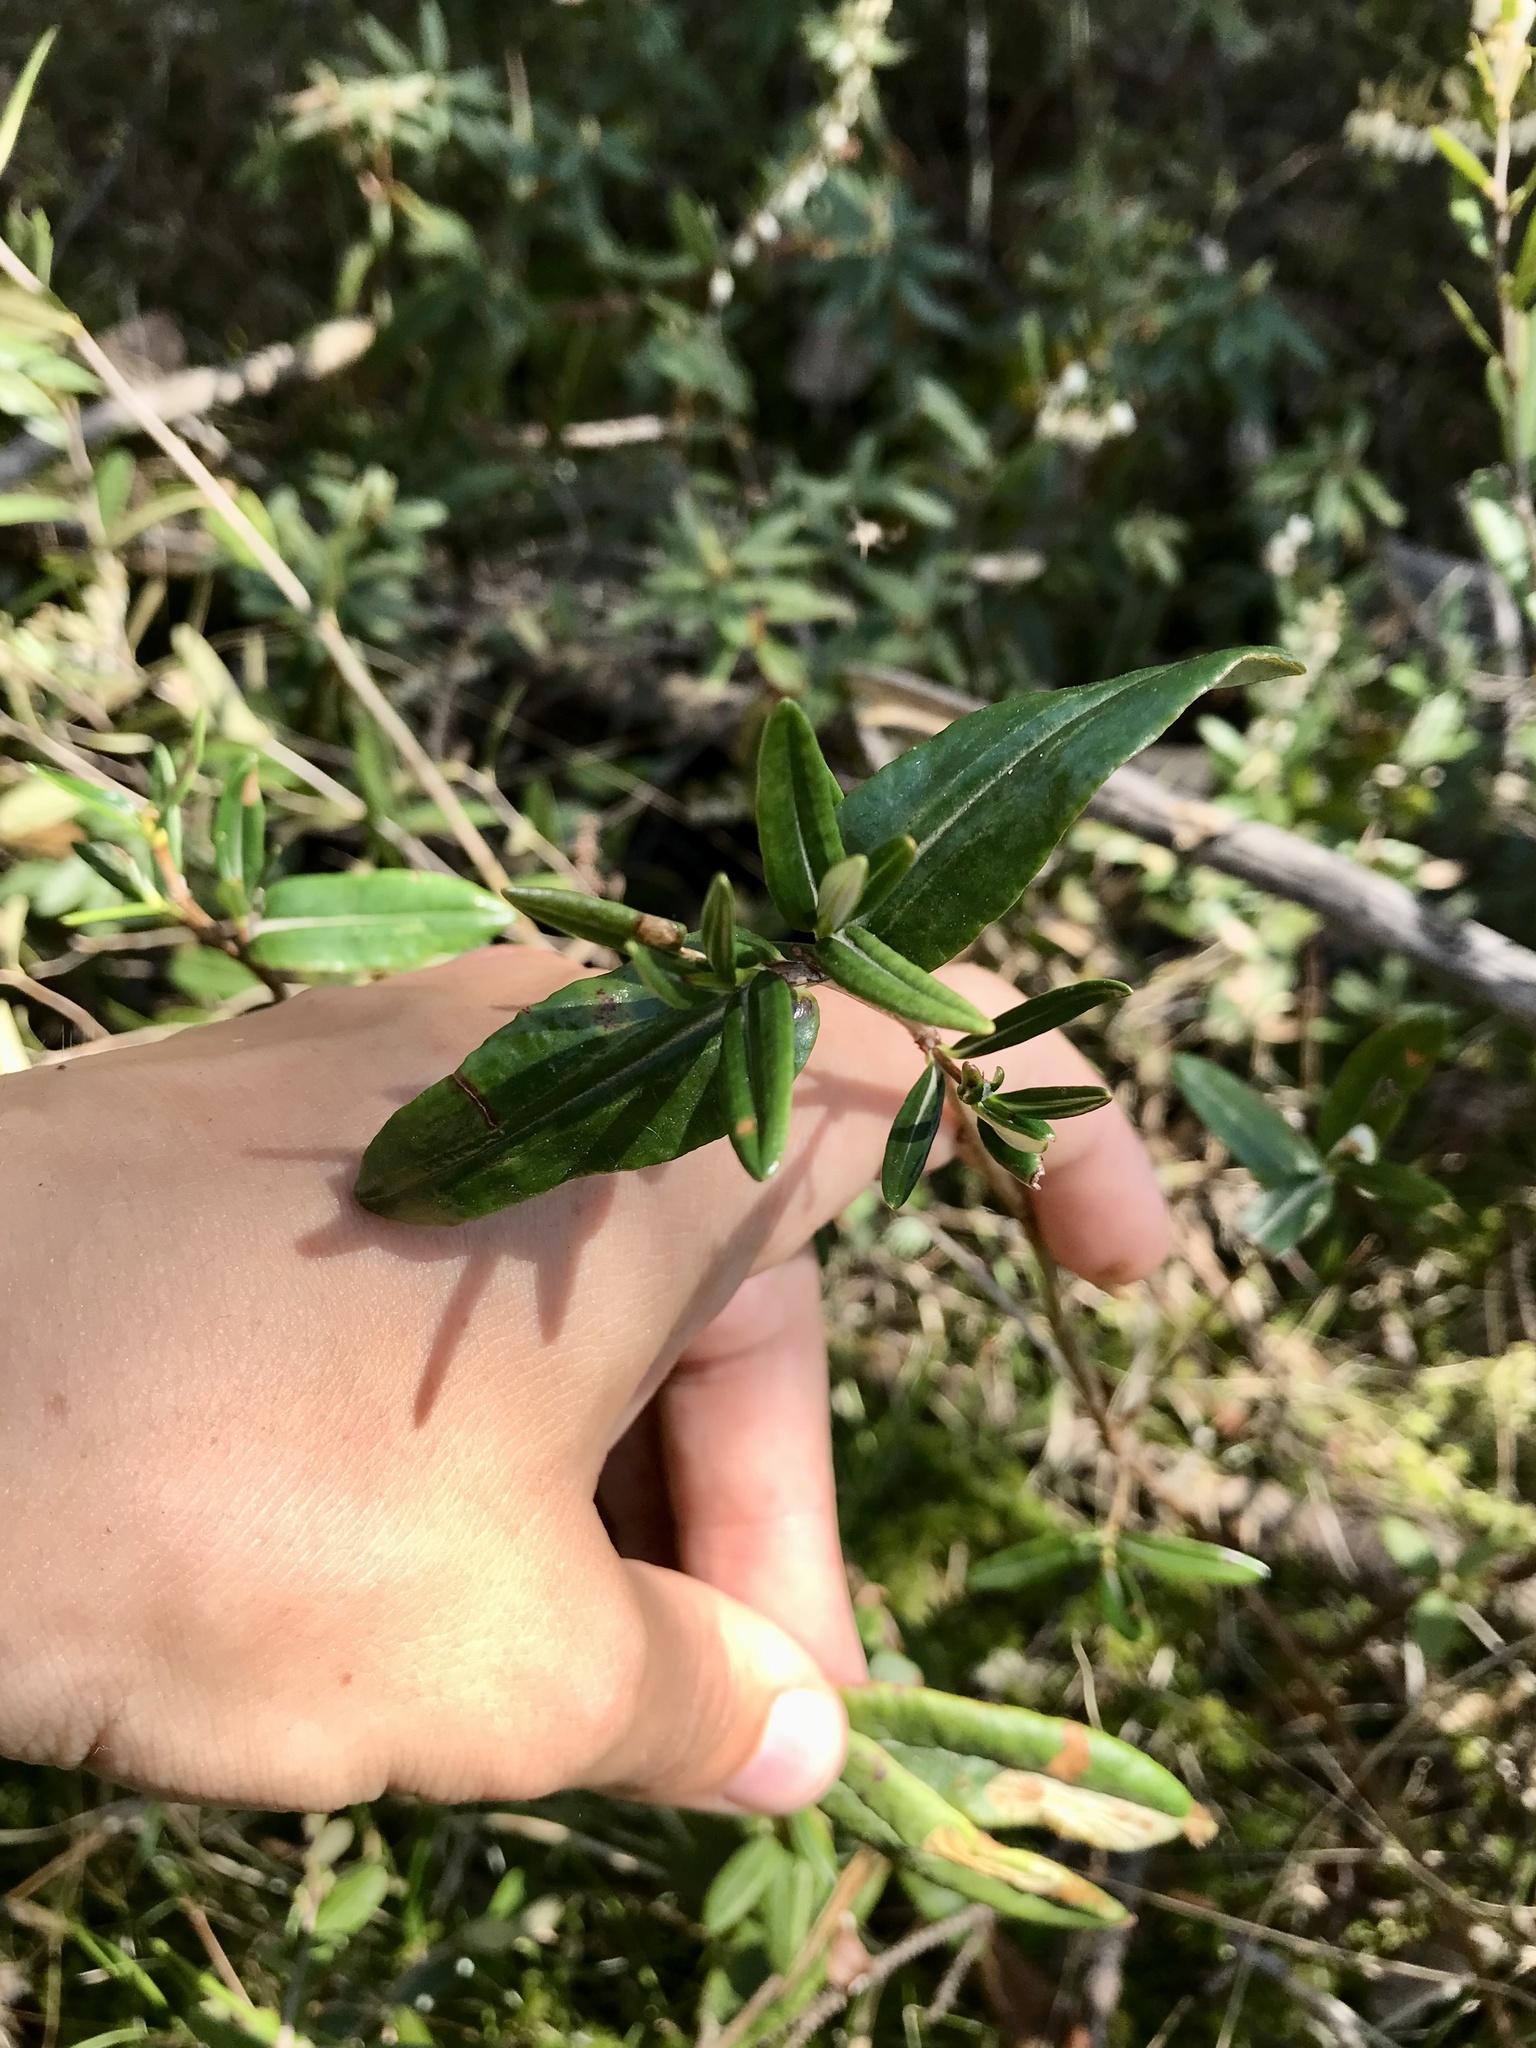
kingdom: Plantae
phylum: Tracheophyta
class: Magnoliopsida
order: Ericales
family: Ericaceae
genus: Kalmia
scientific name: Kalmia polifolia
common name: Bog-laurel
